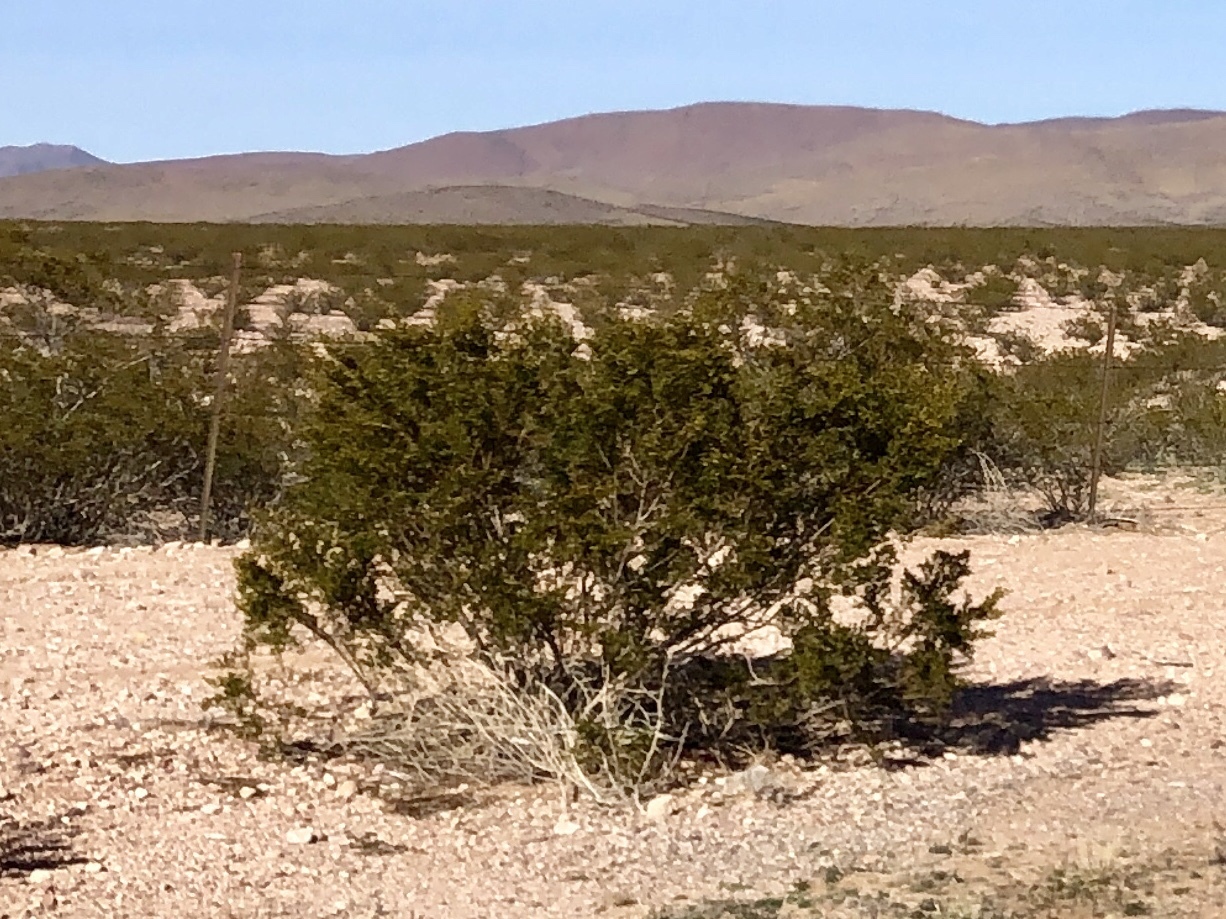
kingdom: Plantae
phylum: Tracheophyta
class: Magnoliopsida
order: Zygophyllales
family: Zygophyllaceae
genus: Larrea
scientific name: Larrea tridentata
